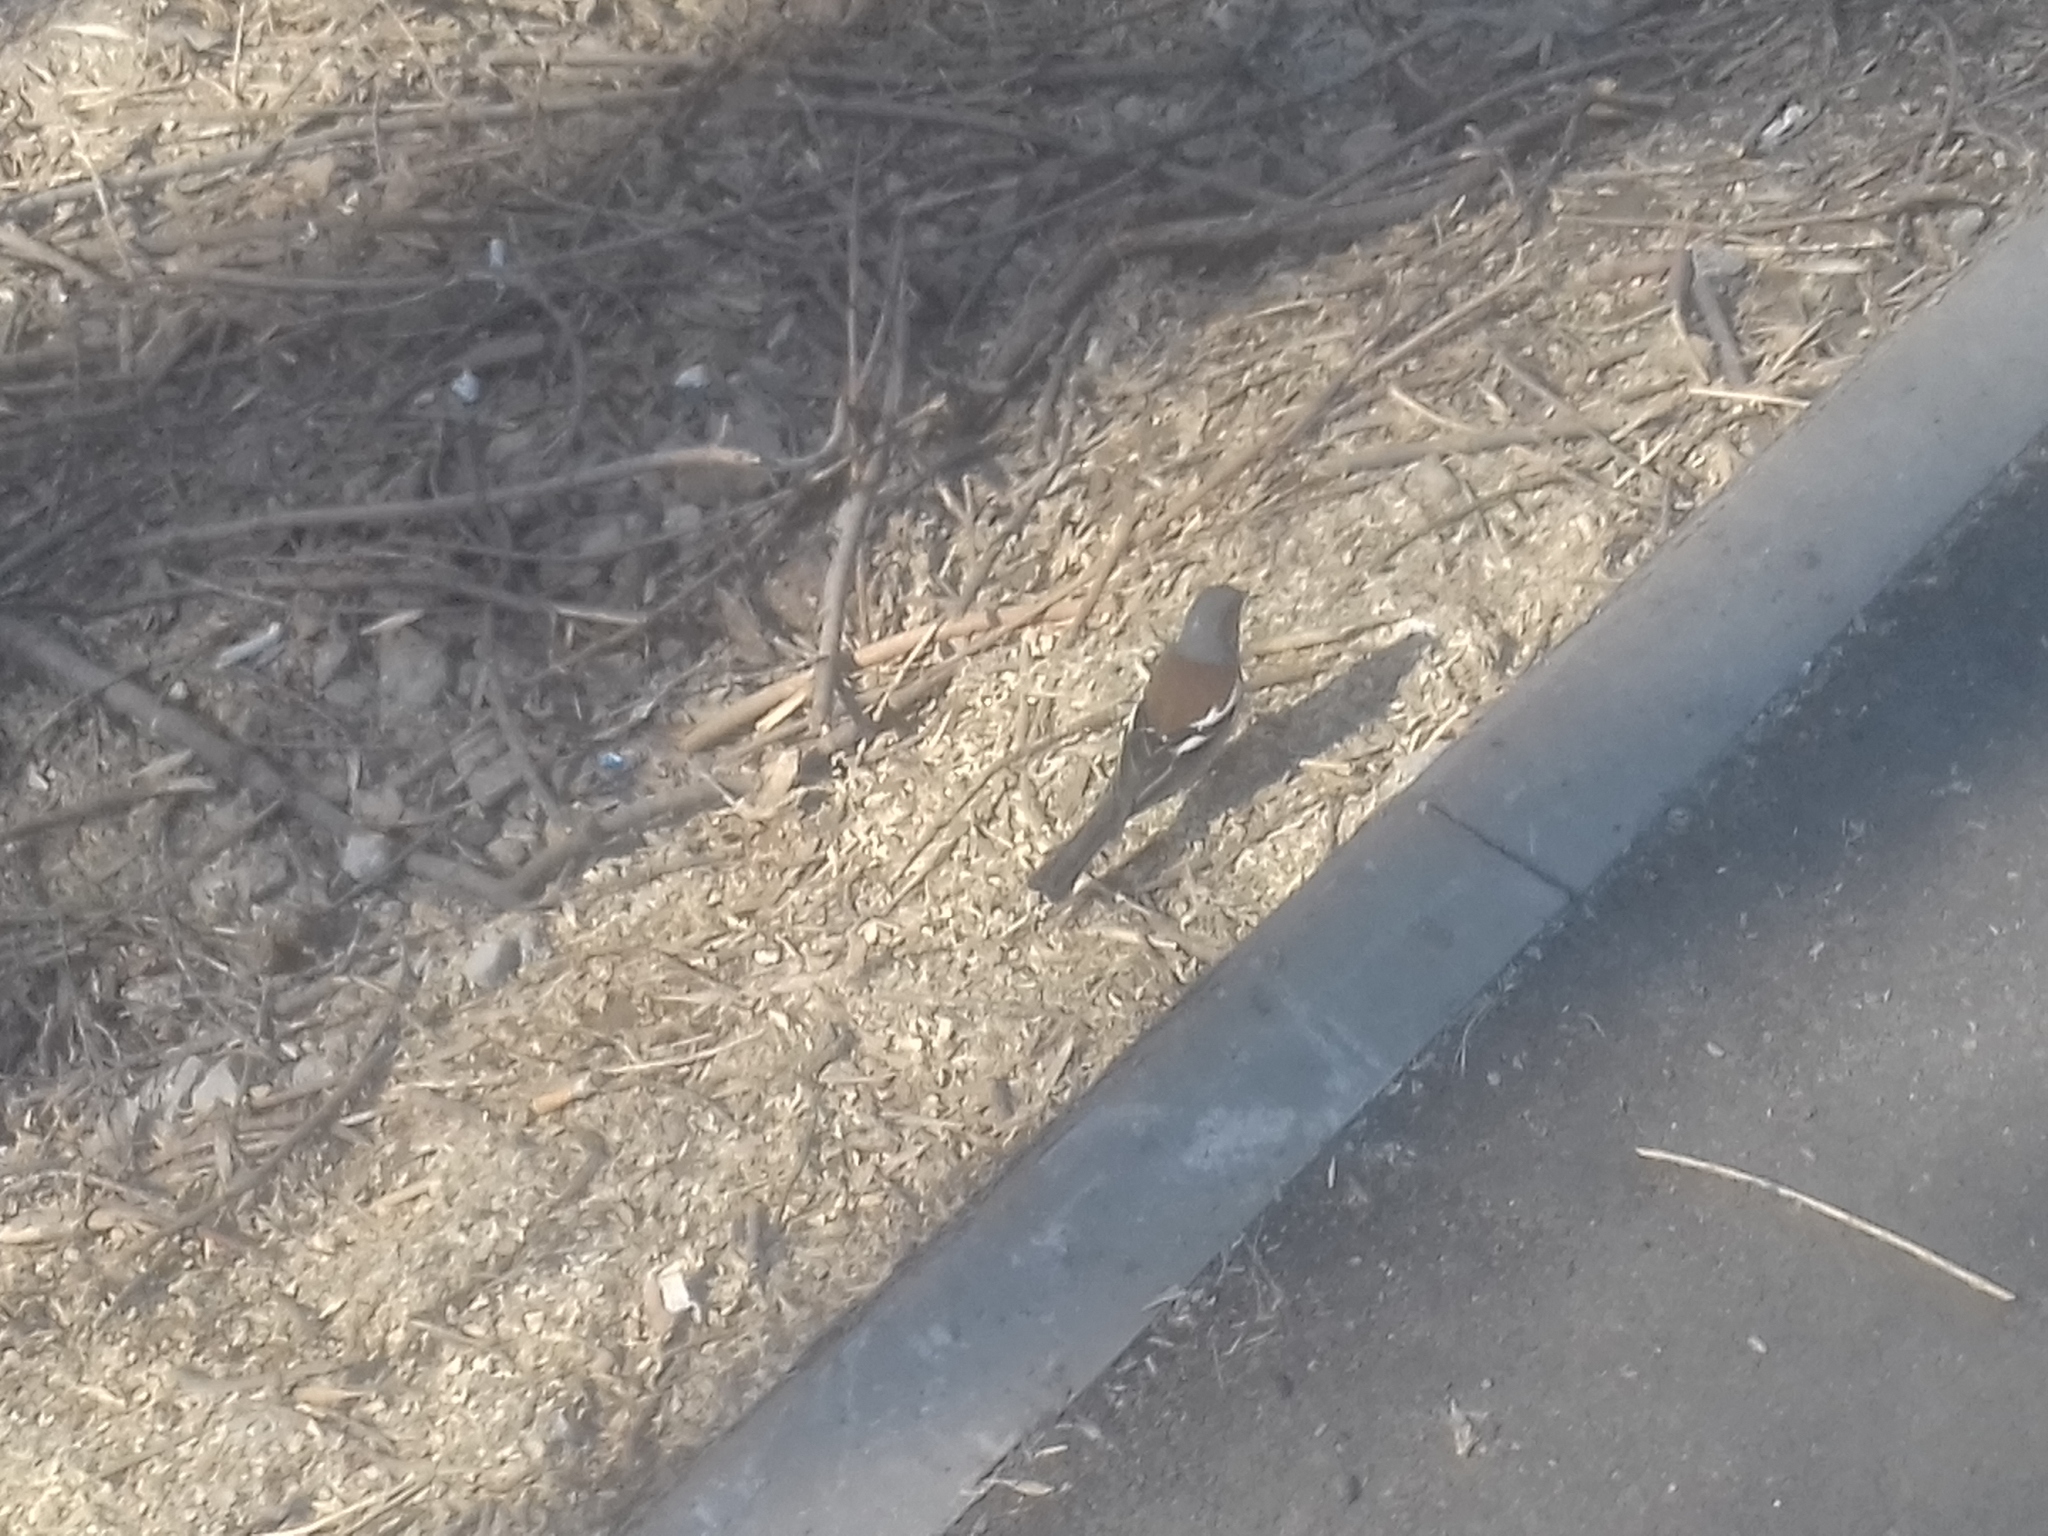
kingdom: Animalia
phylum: Chordata
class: Aves
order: Passeriformes
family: Fringillidae
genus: Fringilla
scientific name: Fringilla coelebs
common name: Common chaffinch
